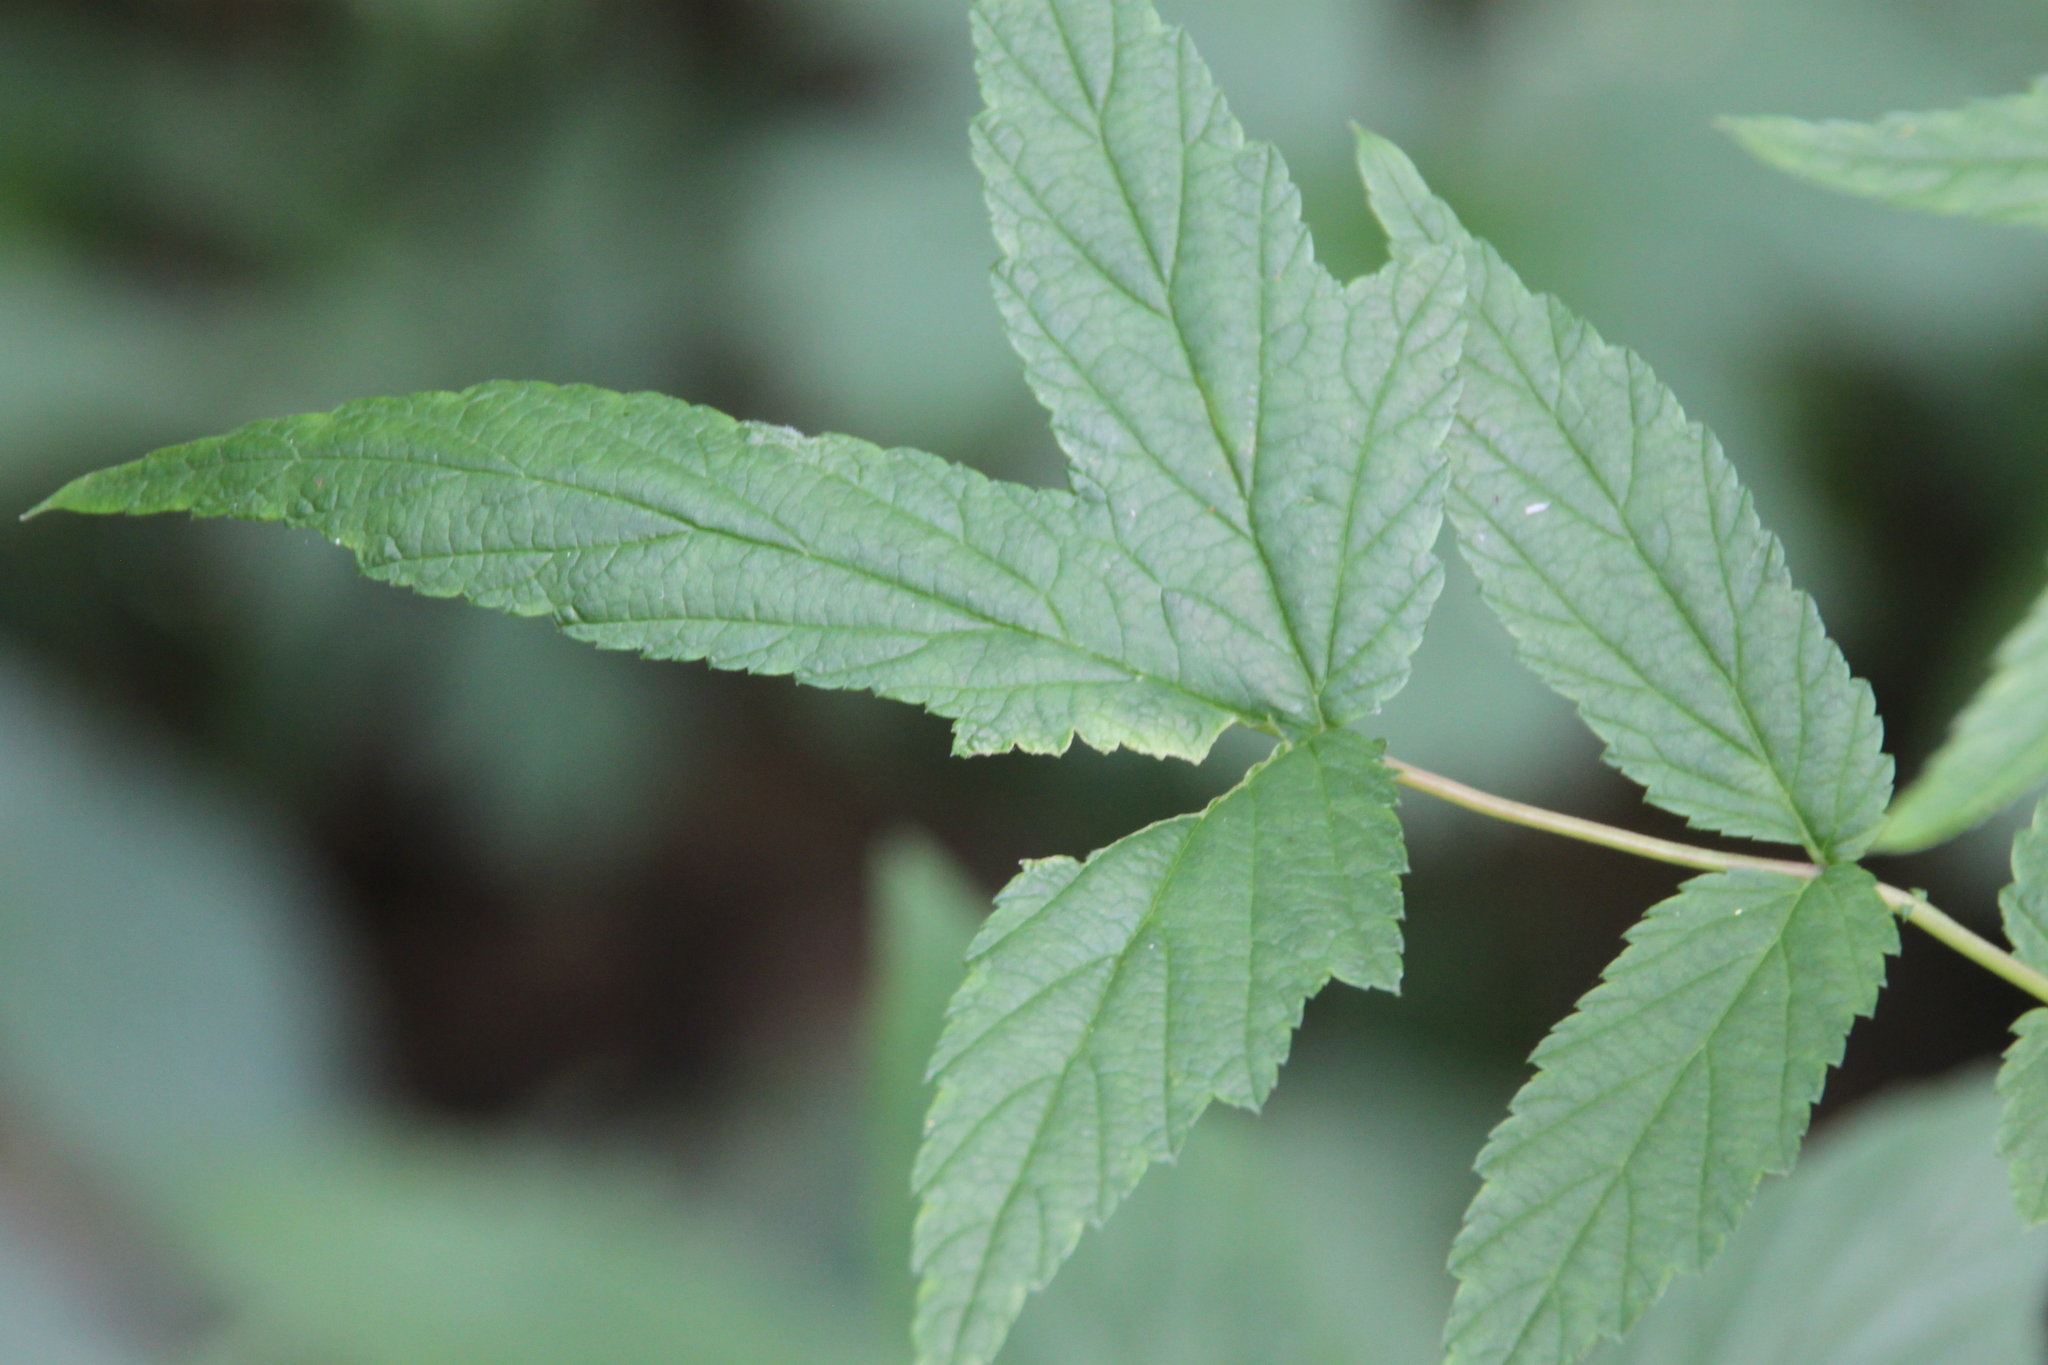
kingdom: Plantae
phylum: Tracheophyta
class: Magnoliopsida
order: Rosales
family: Rosaceae
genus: Filipendula
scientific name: Filipendula ulmaria
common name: Meadowsweet
